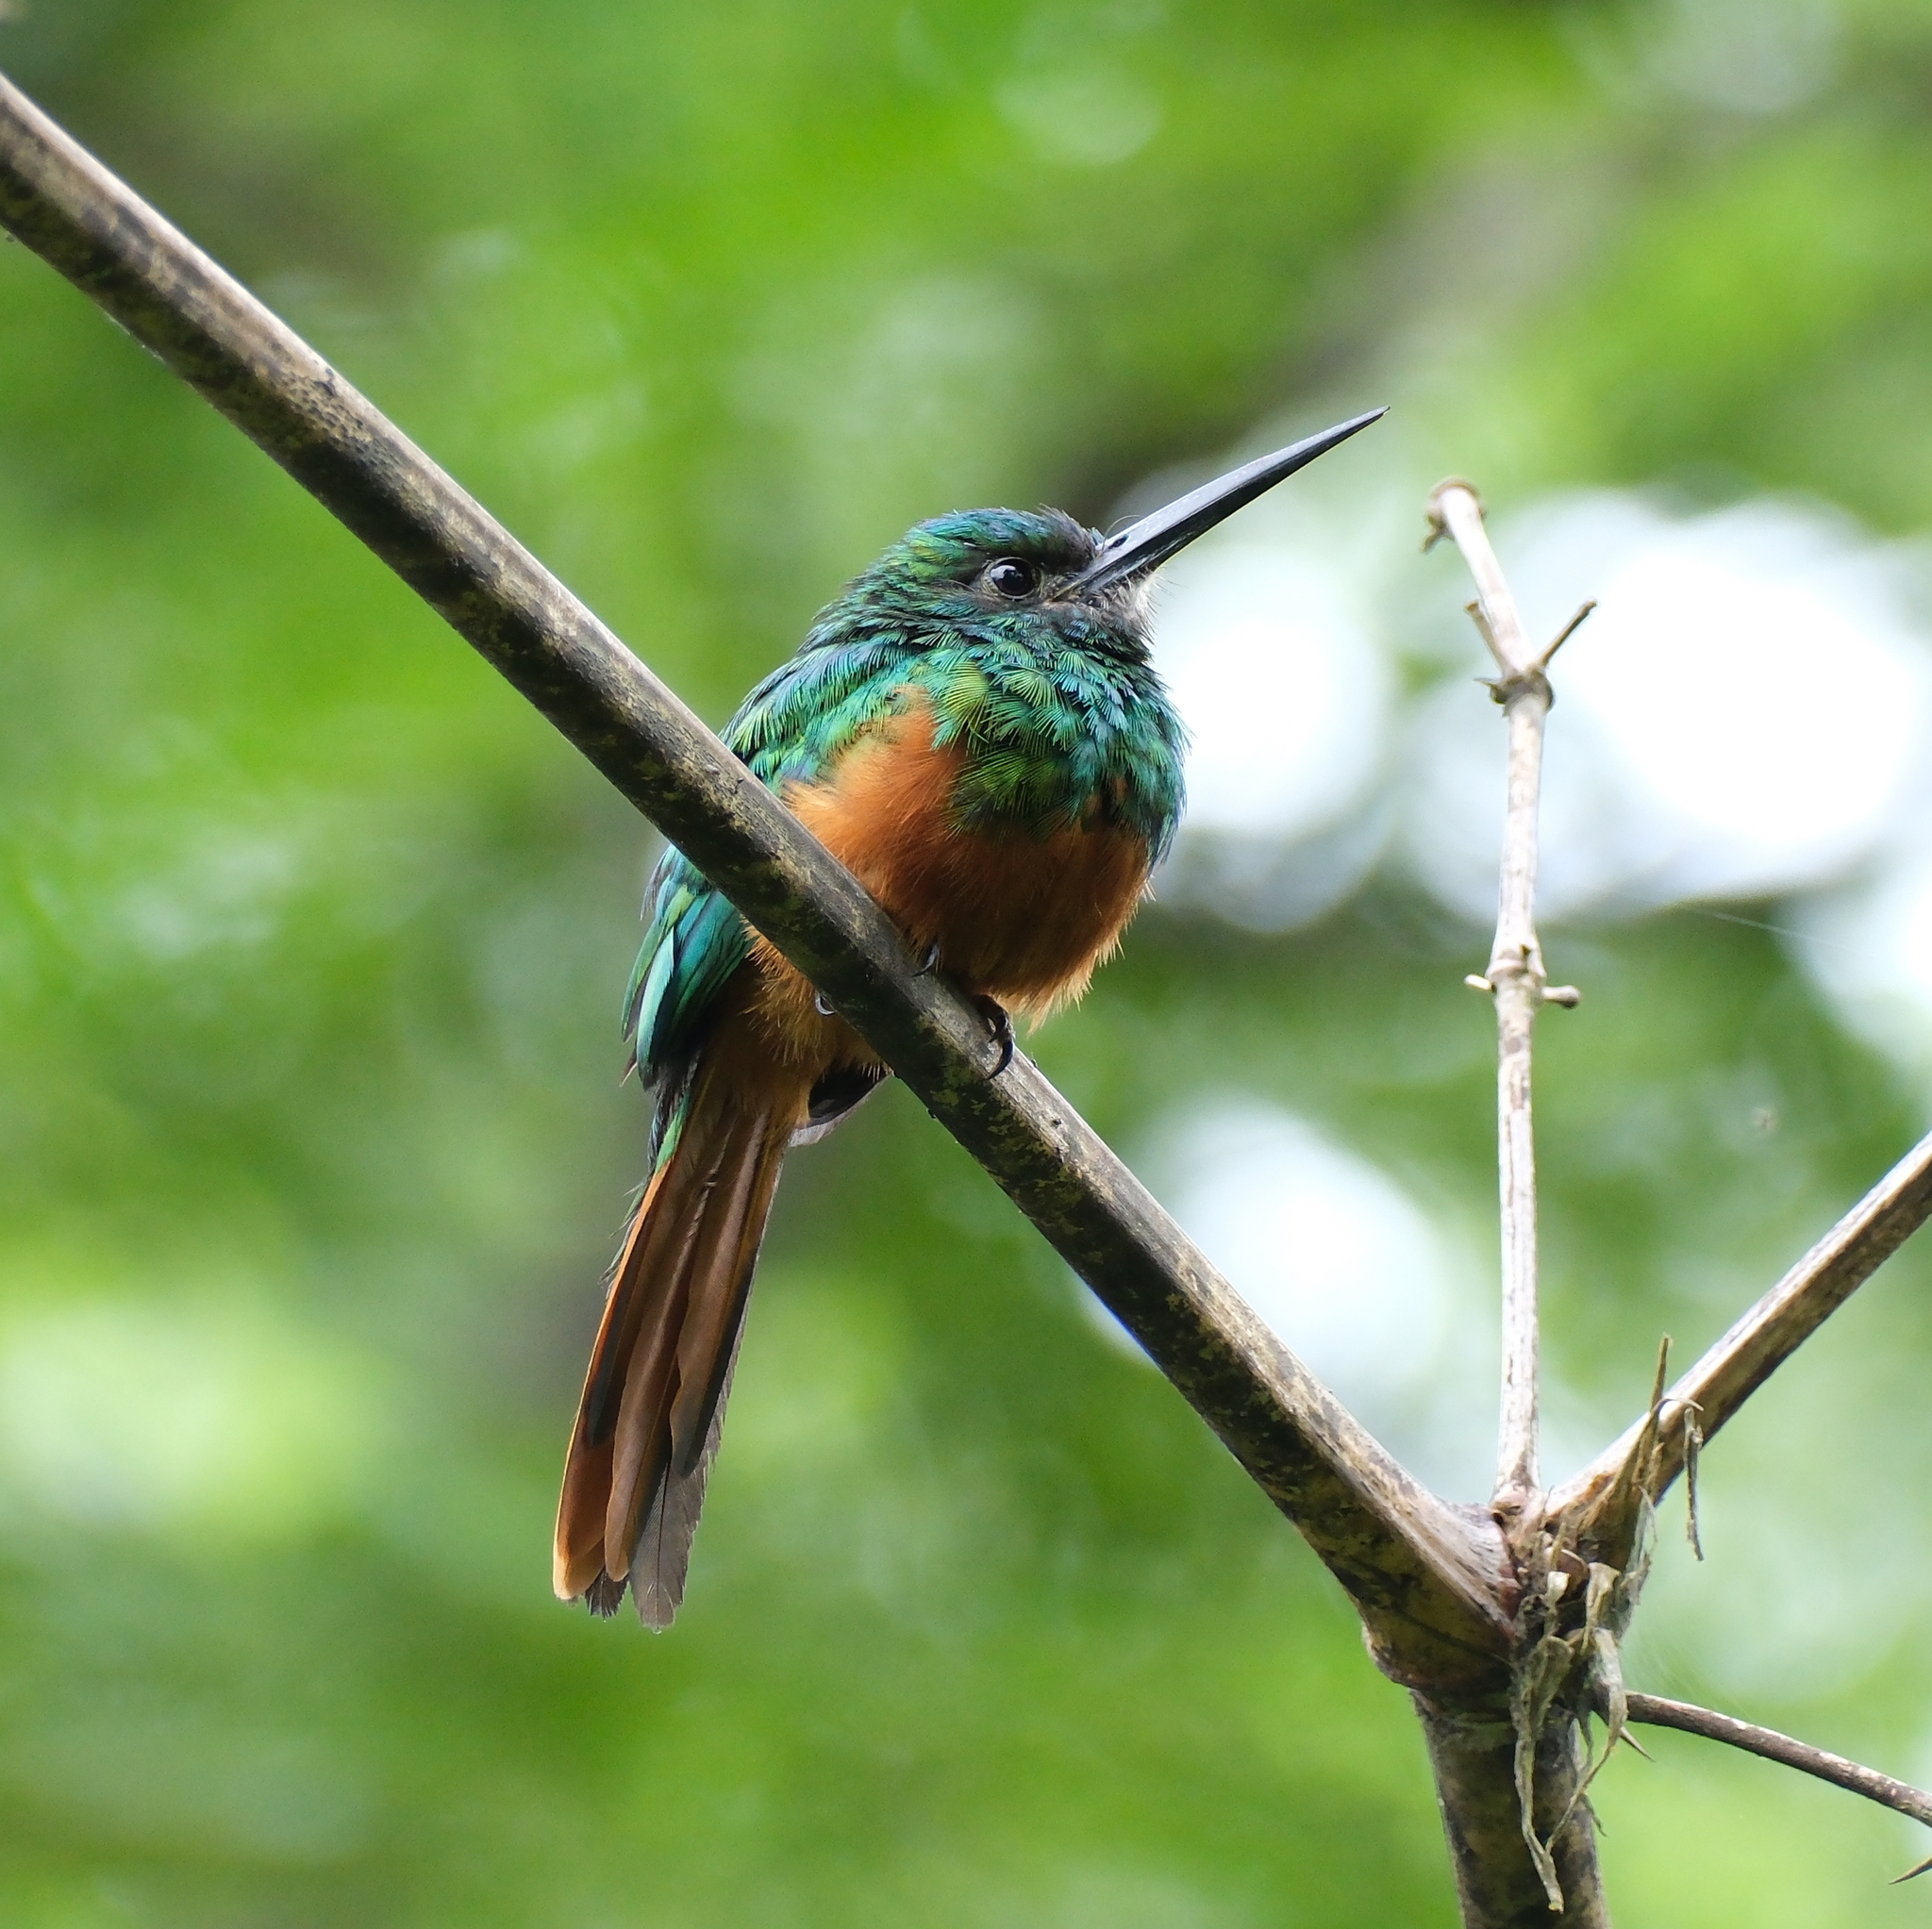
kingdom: Animalia
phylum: Chordata
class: Aves
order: Piciformes
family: Galbulidae
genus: Galbula
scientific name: Galbula cyanescens
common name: Bluish-fronted jacamar
